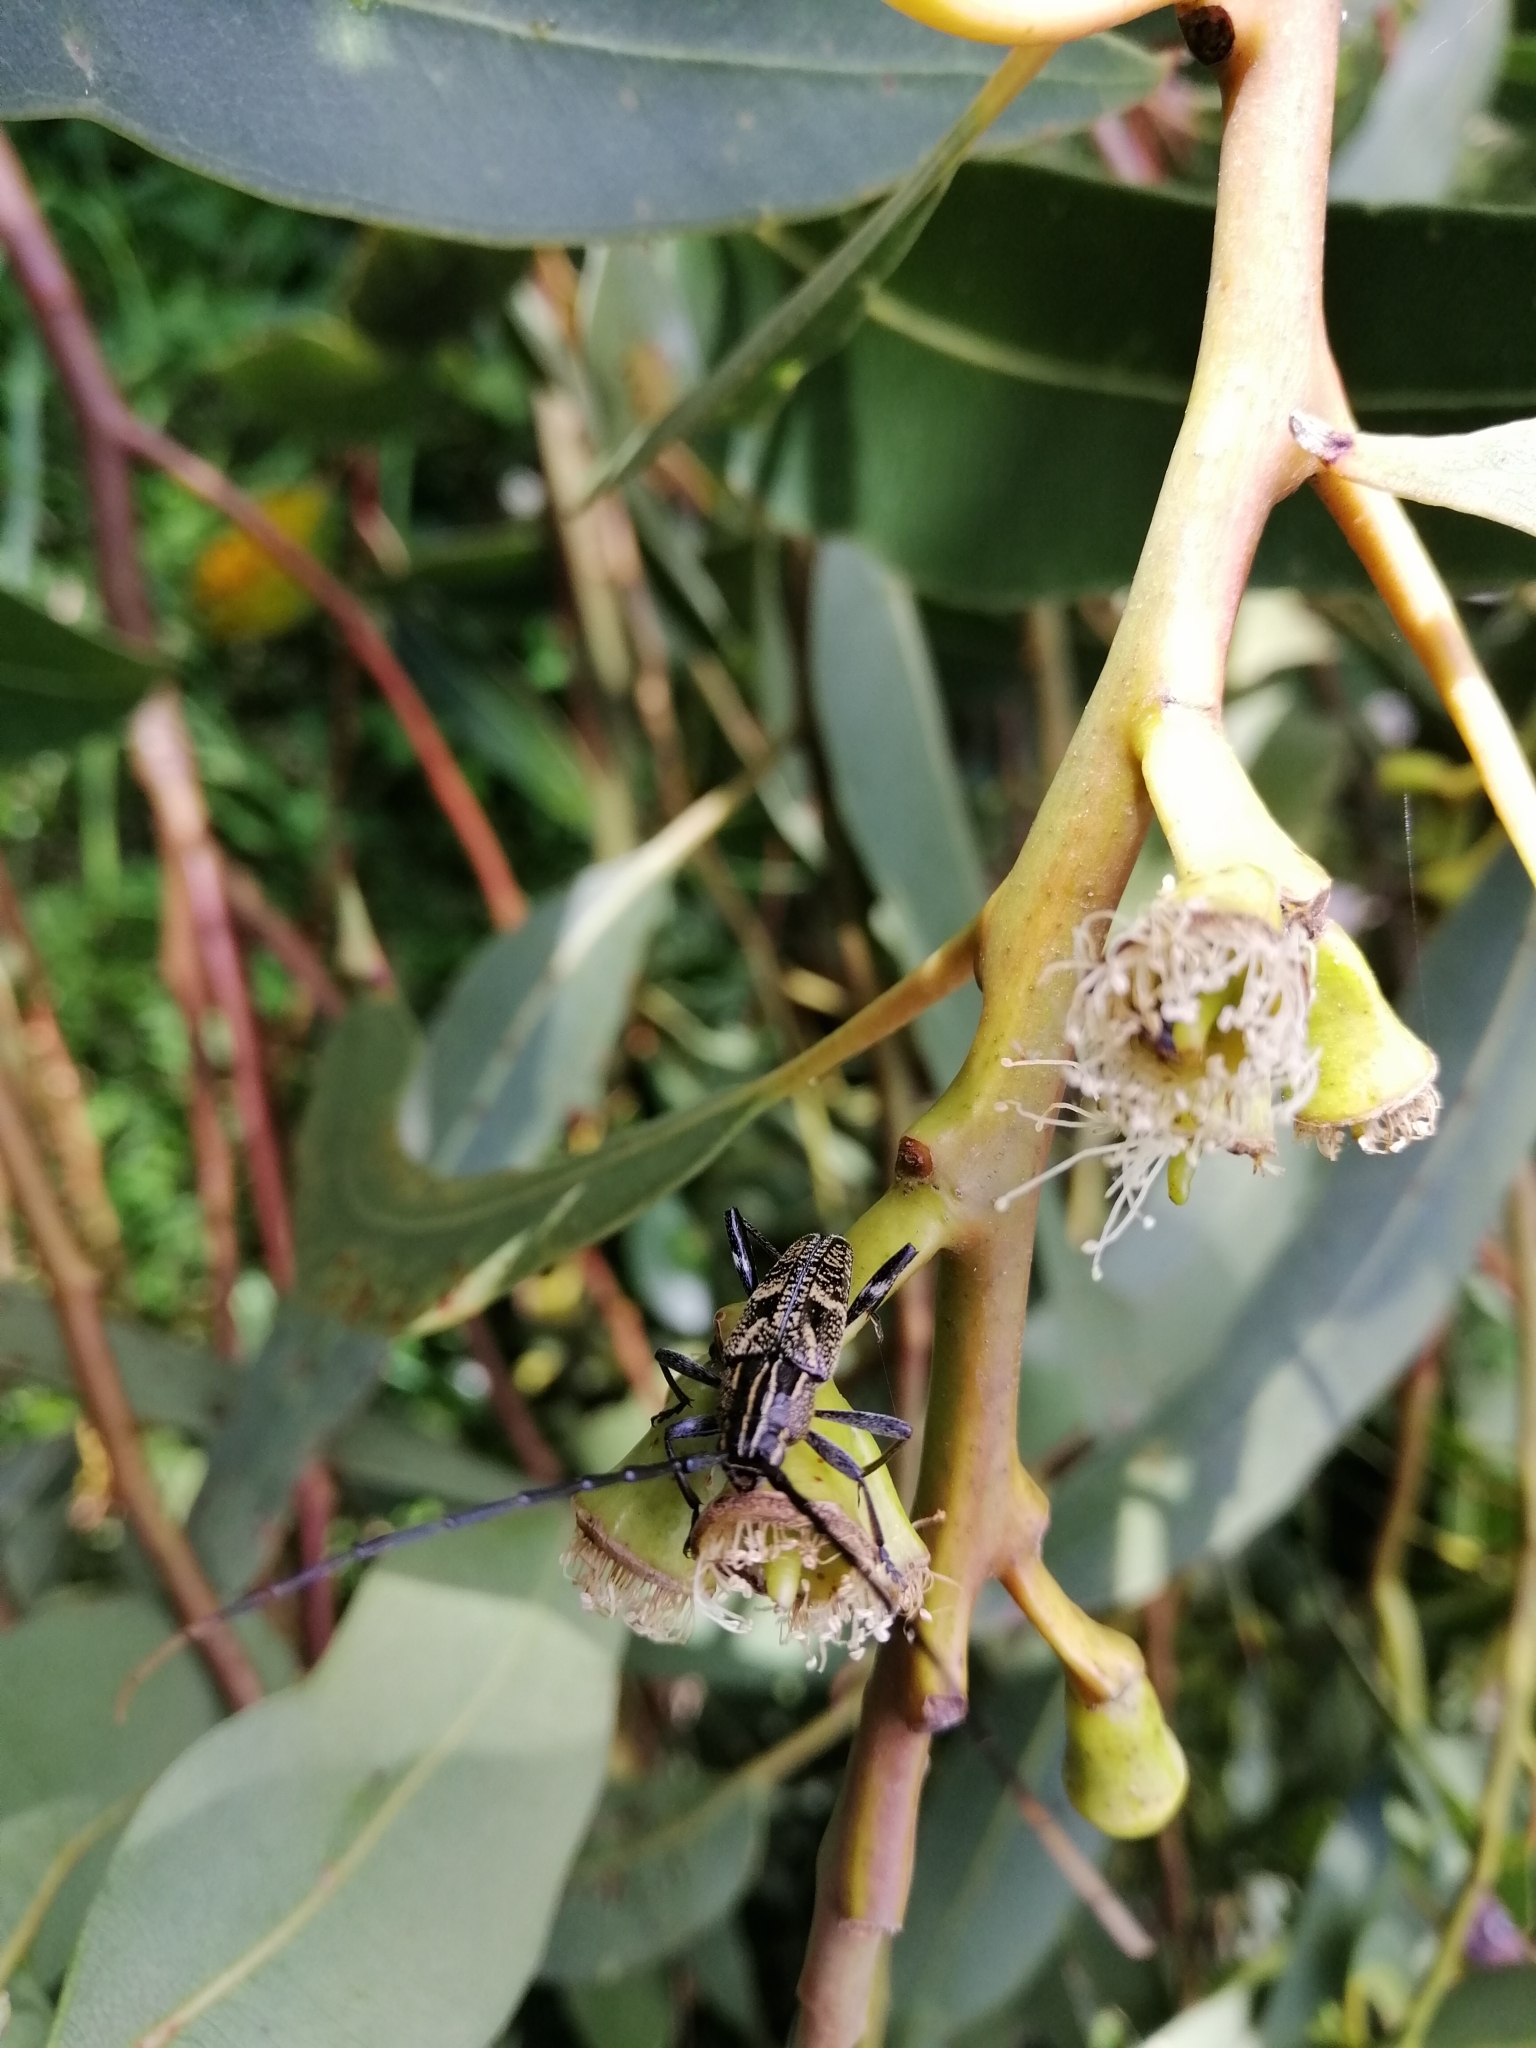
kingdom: Animalia
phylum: Arthropoda
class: Insecta
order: Coleoptera
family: Cerambycidae
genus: Coptomma
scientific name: Coptomma variegatum
